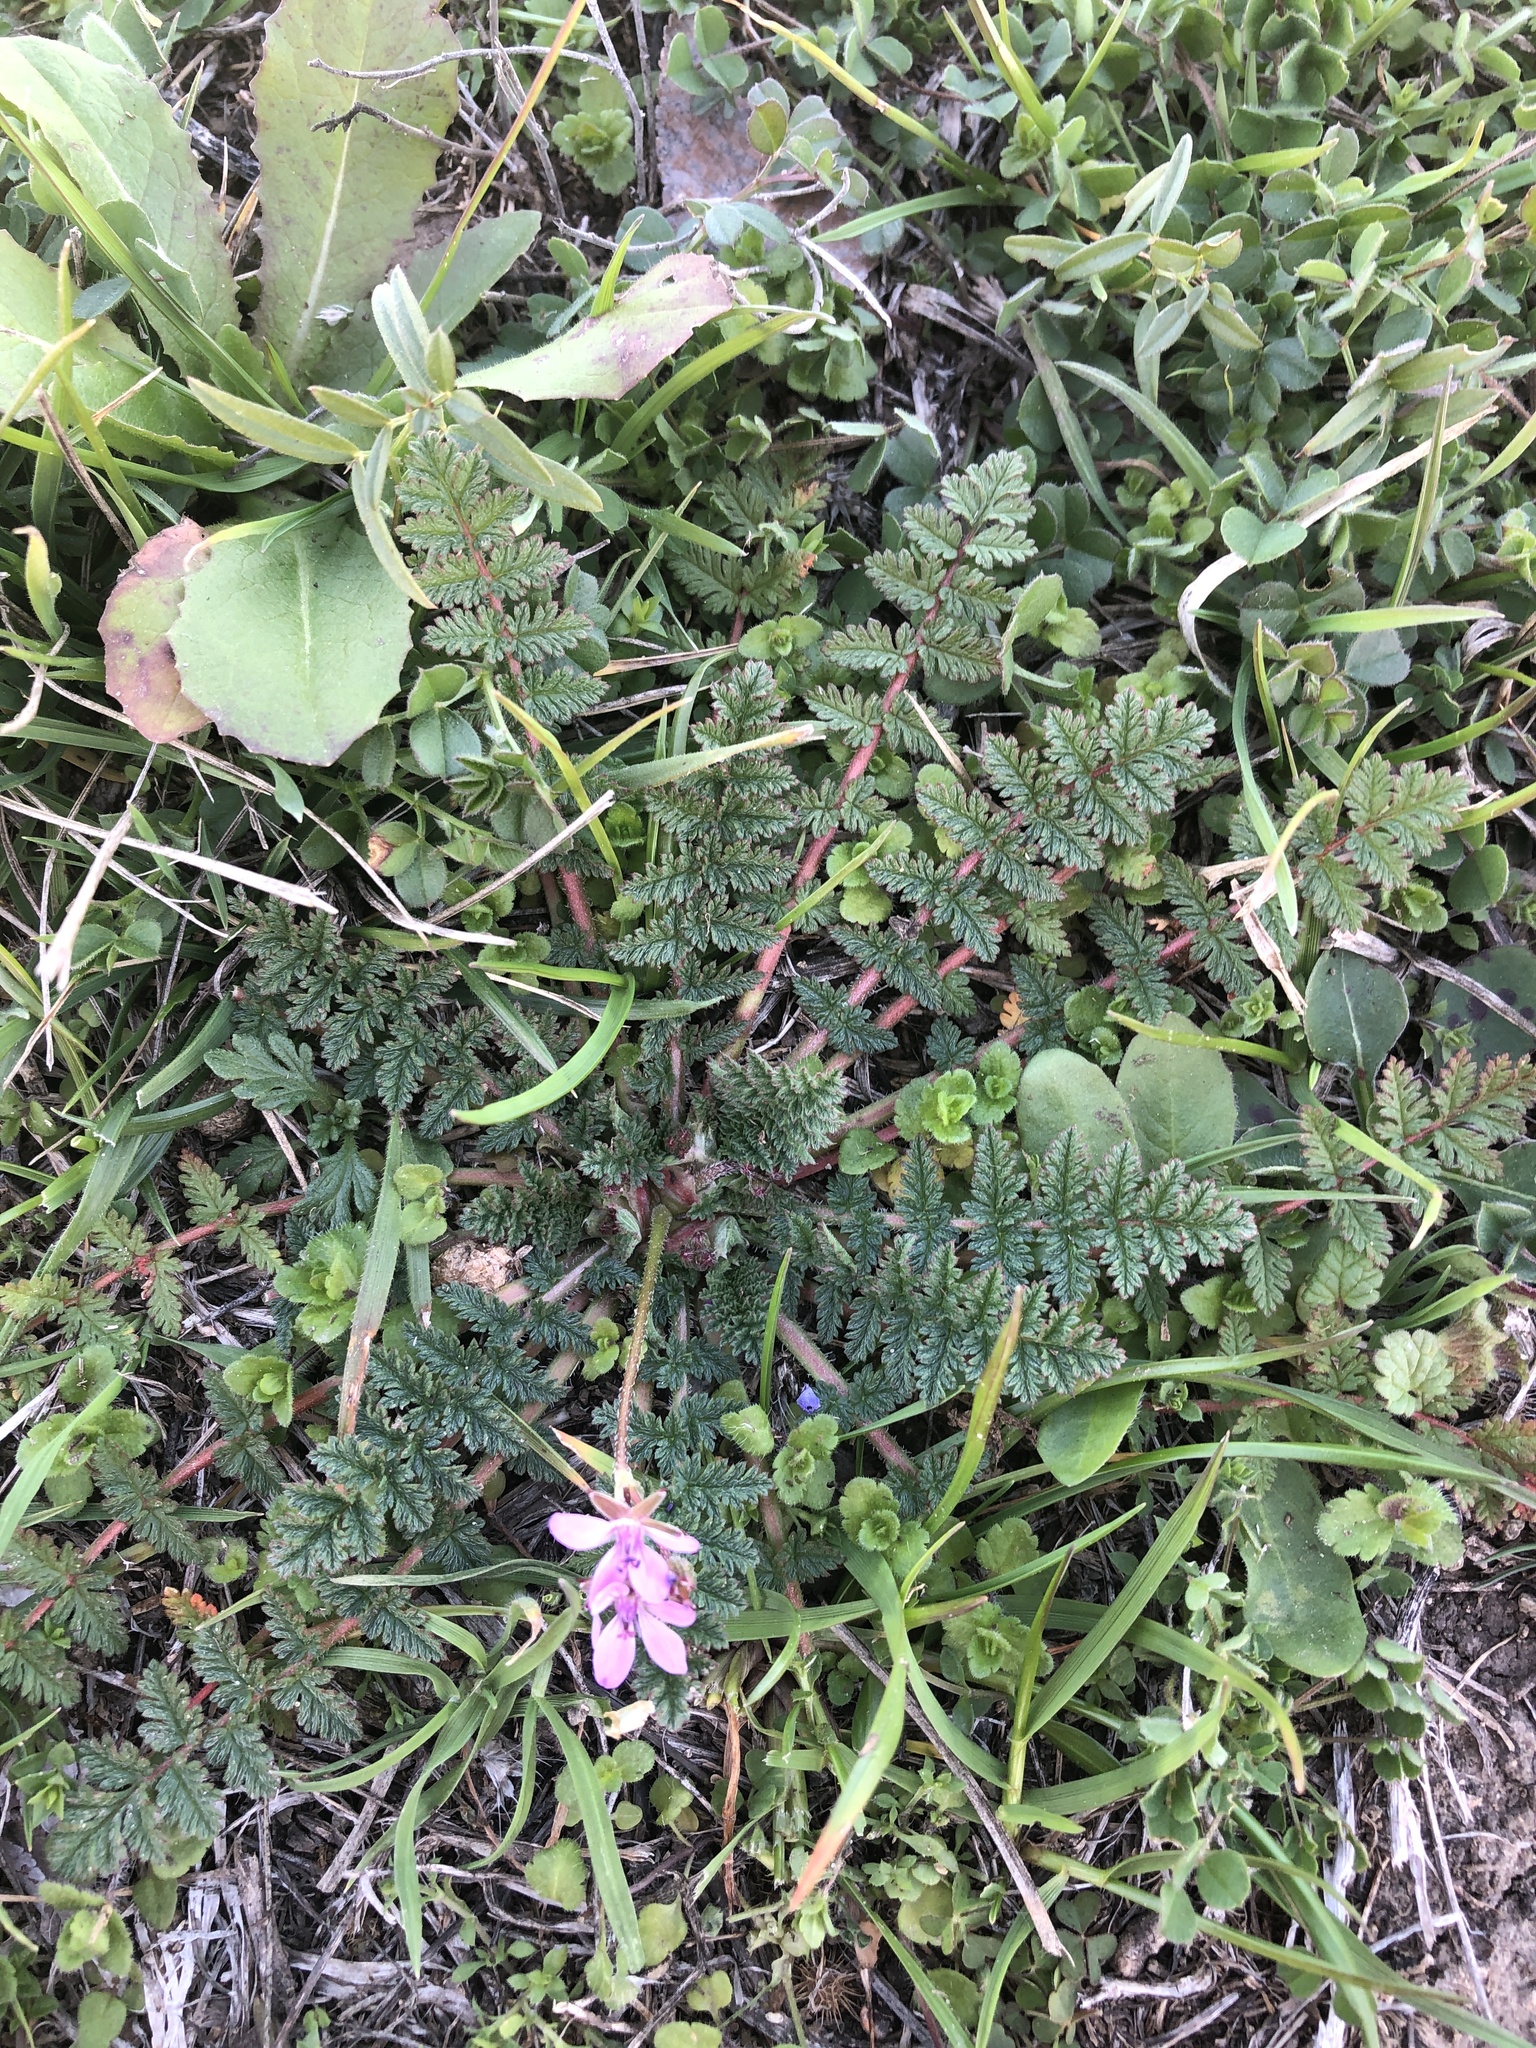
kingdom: Plantae
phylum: Tracheophyta
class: Magnoliopsida
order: Geraniales
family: Geraniaceae
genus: Erodium
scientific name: Erodium cicutarium
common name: Common stork's-bill
